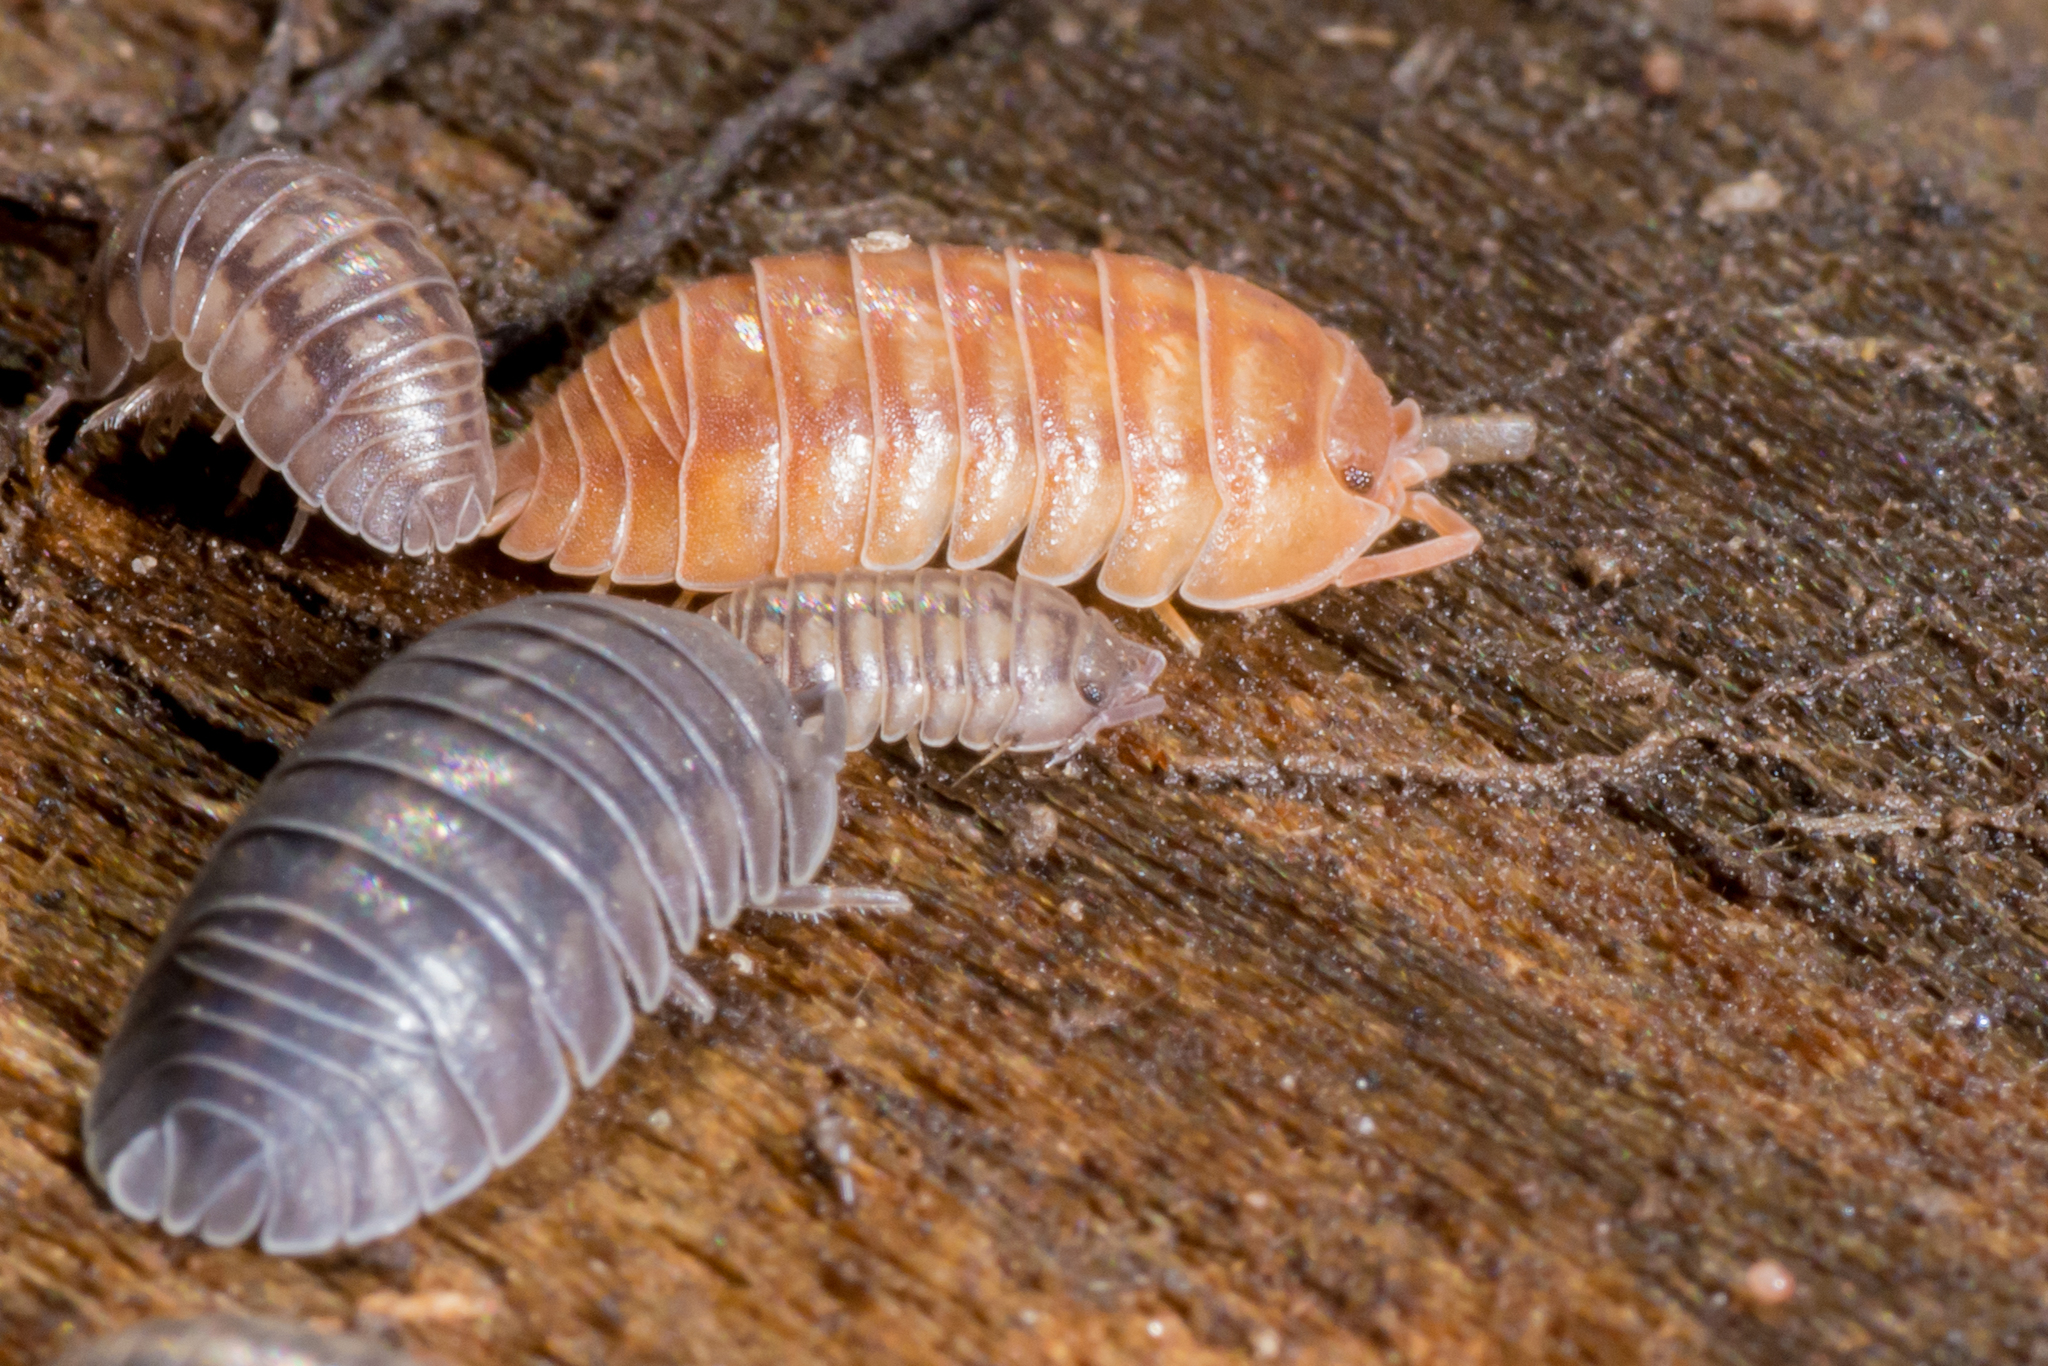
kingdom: Animalia
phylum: Arthropoda
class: Malacostraca
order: Isopoda
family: Armadillidiidae
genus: Armadillidium
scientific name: Armadillidium nasatum
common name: Isopod
